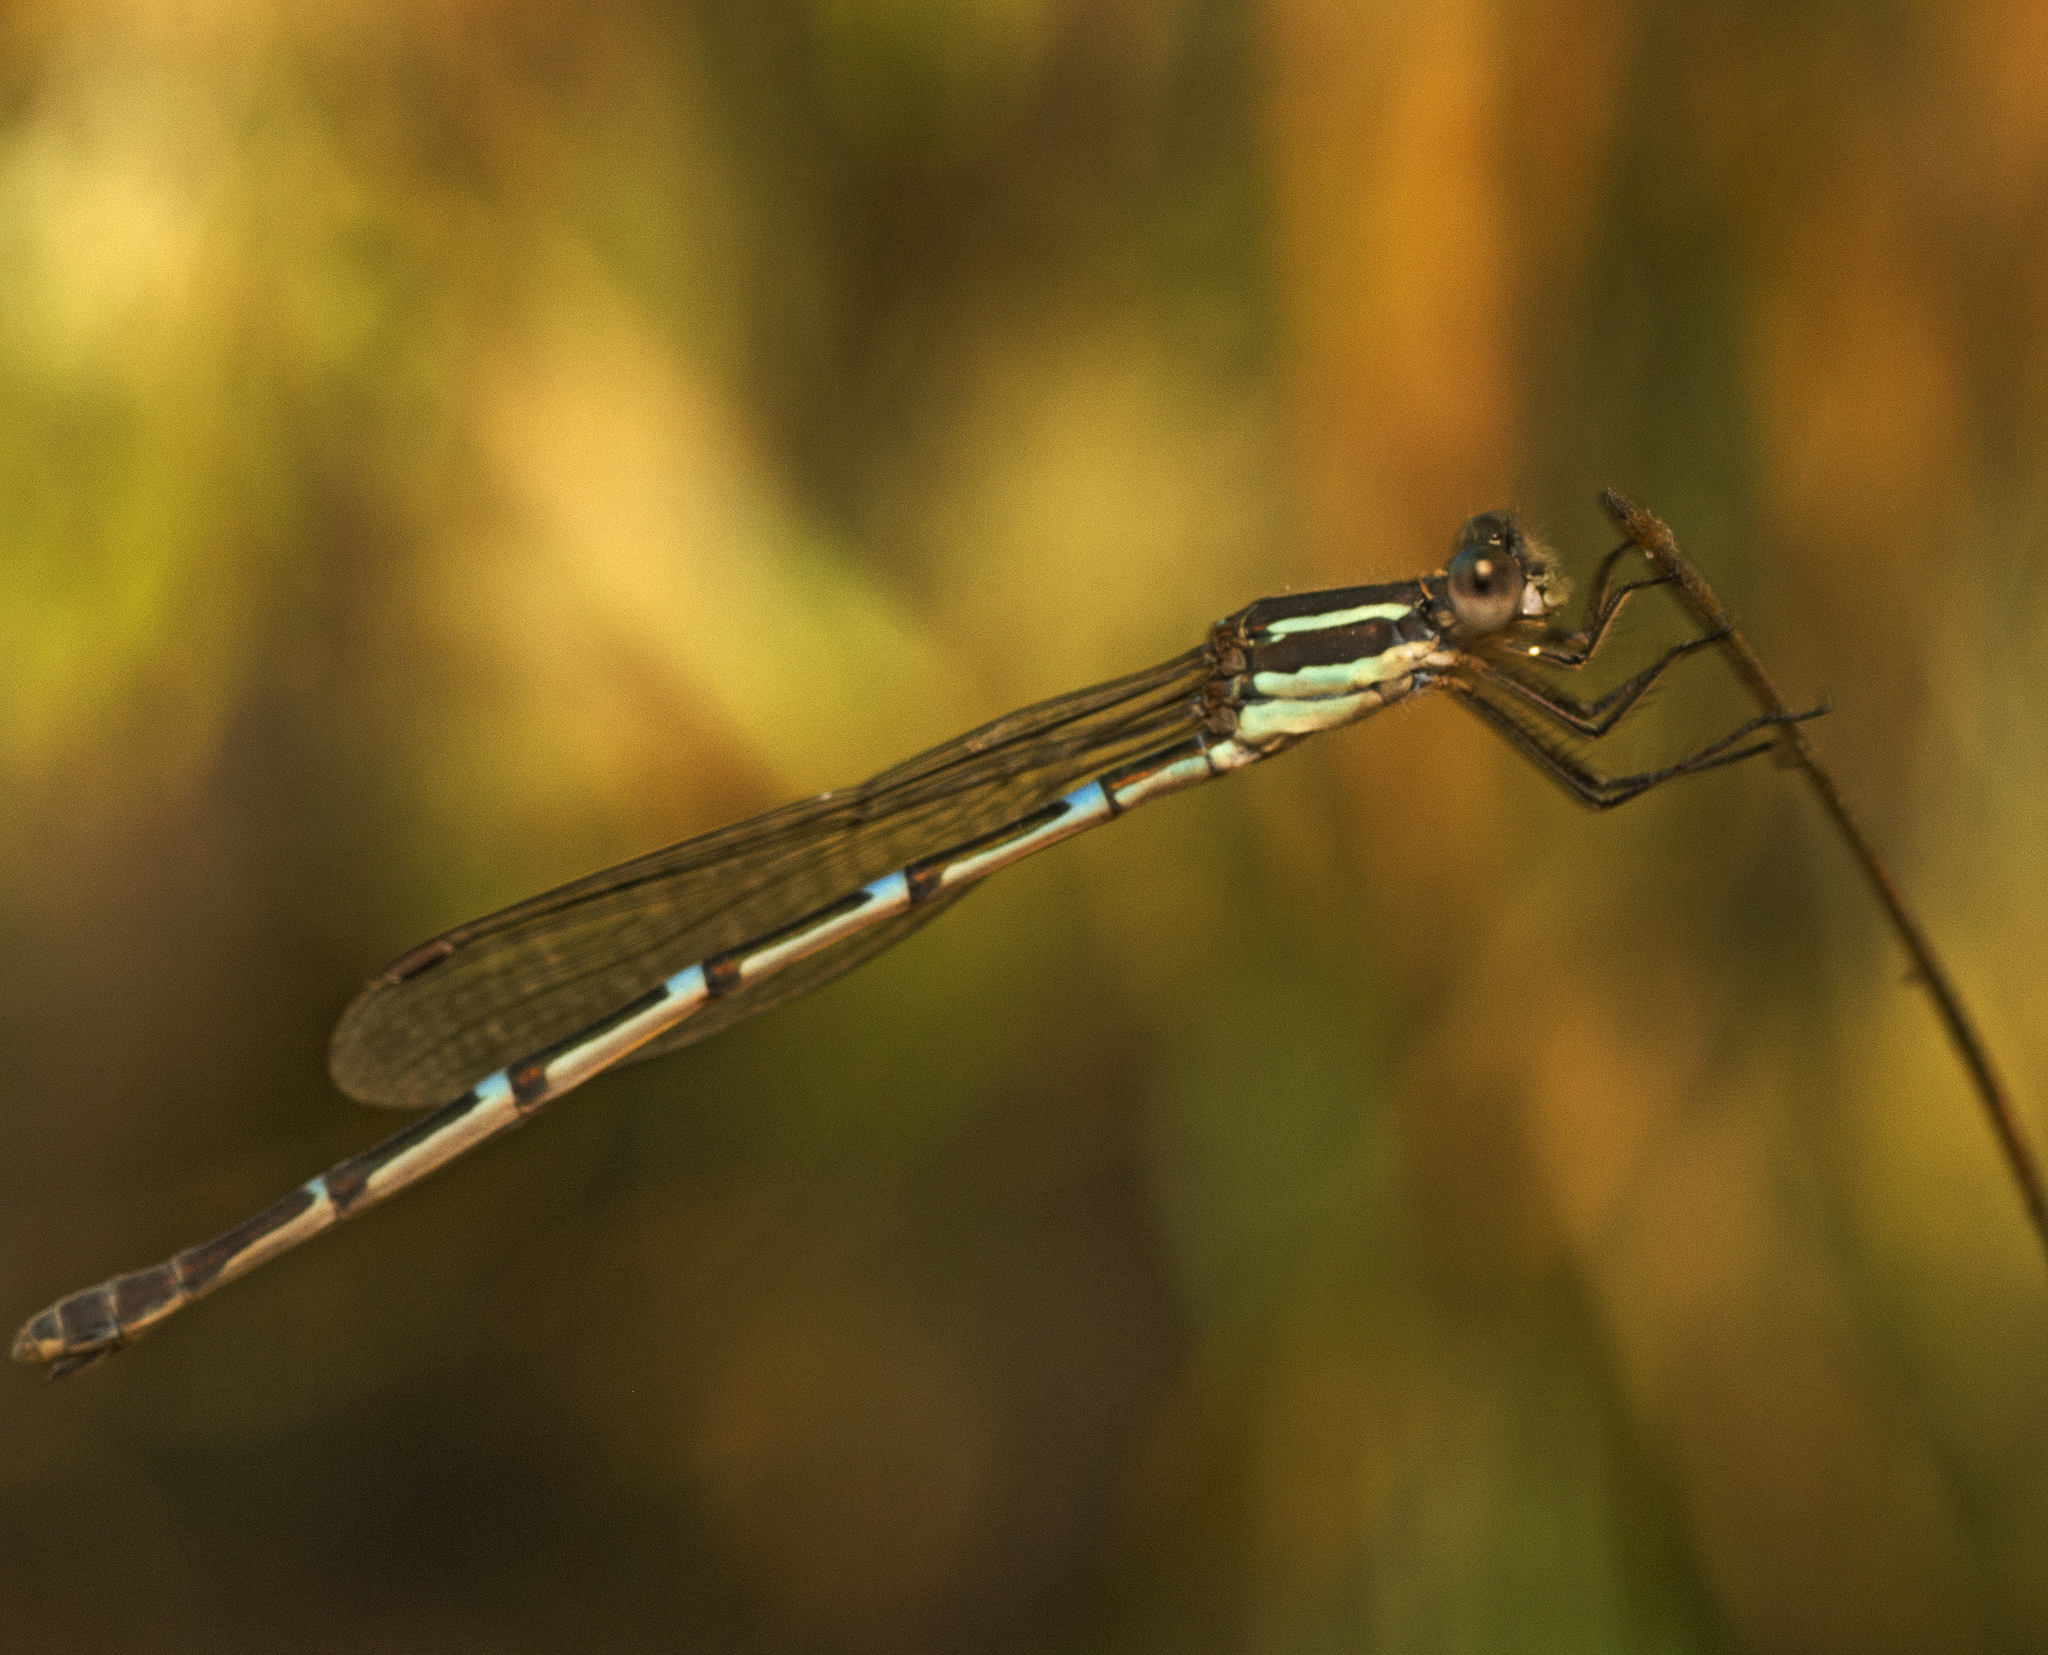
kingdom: Animalia
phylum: Arthropoda
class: Insecta
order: Odonata
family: Lestidae
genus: Austrolestes
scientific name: Austrolestes leda
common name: Wandering ringtail
